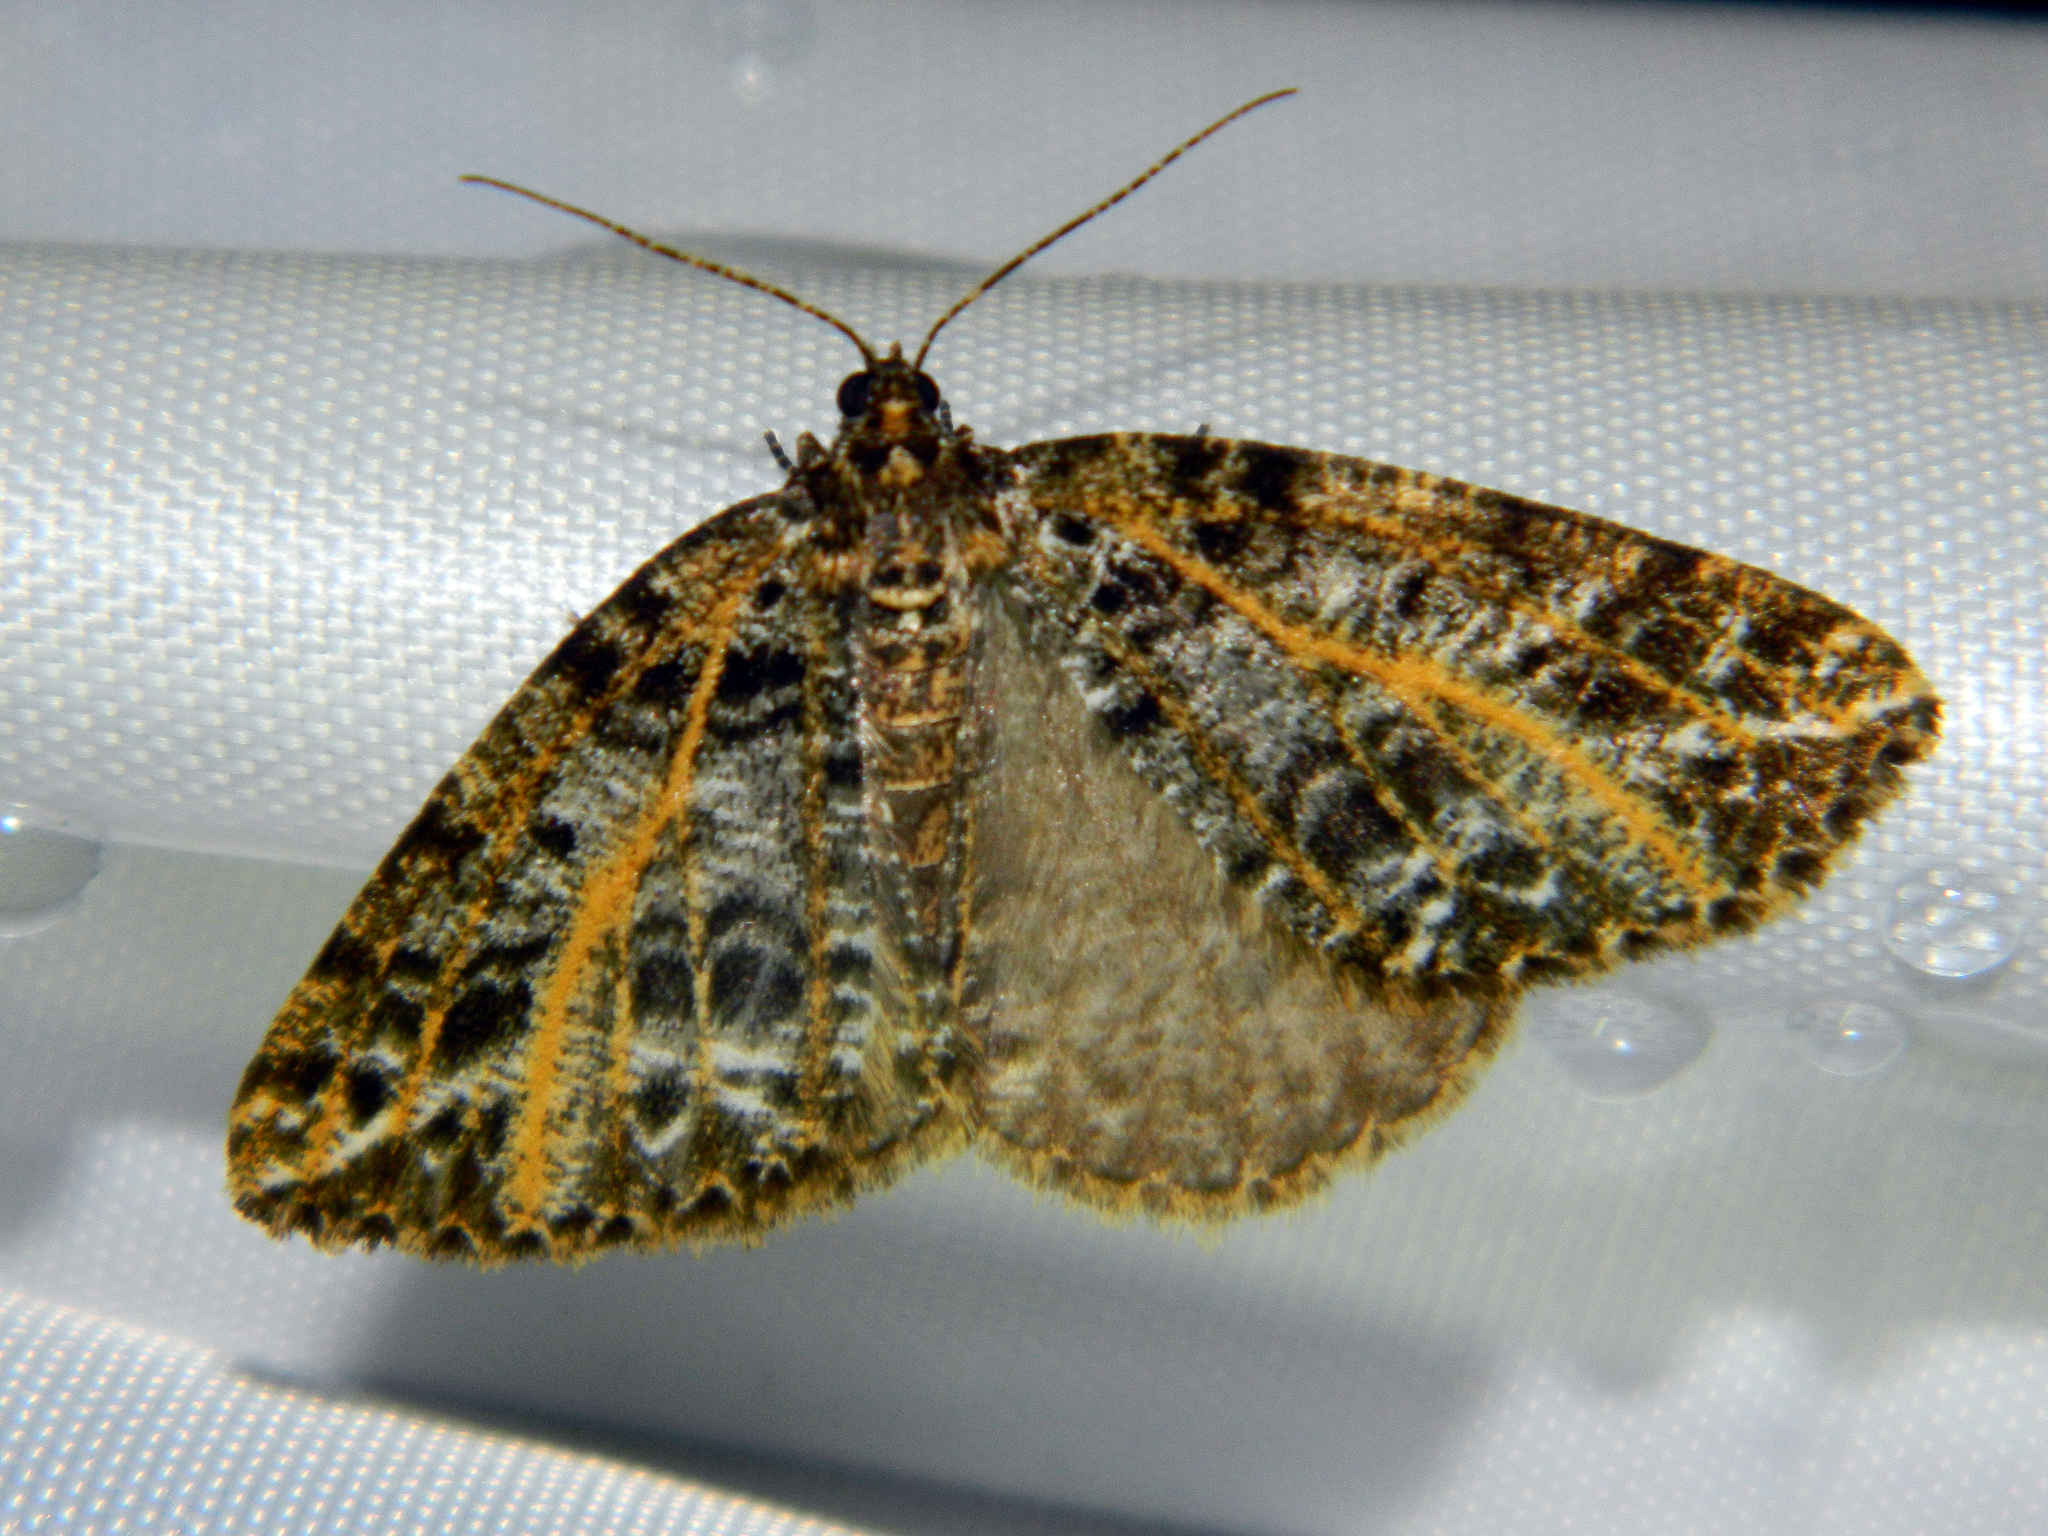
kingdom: Animalia
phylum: Arthropoda
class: Insecta
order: Lepidoptera
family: Geometridae
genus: Orthofidonia
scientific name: Orthofidonia flavivenata
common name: Yellow-veined geometer moth
